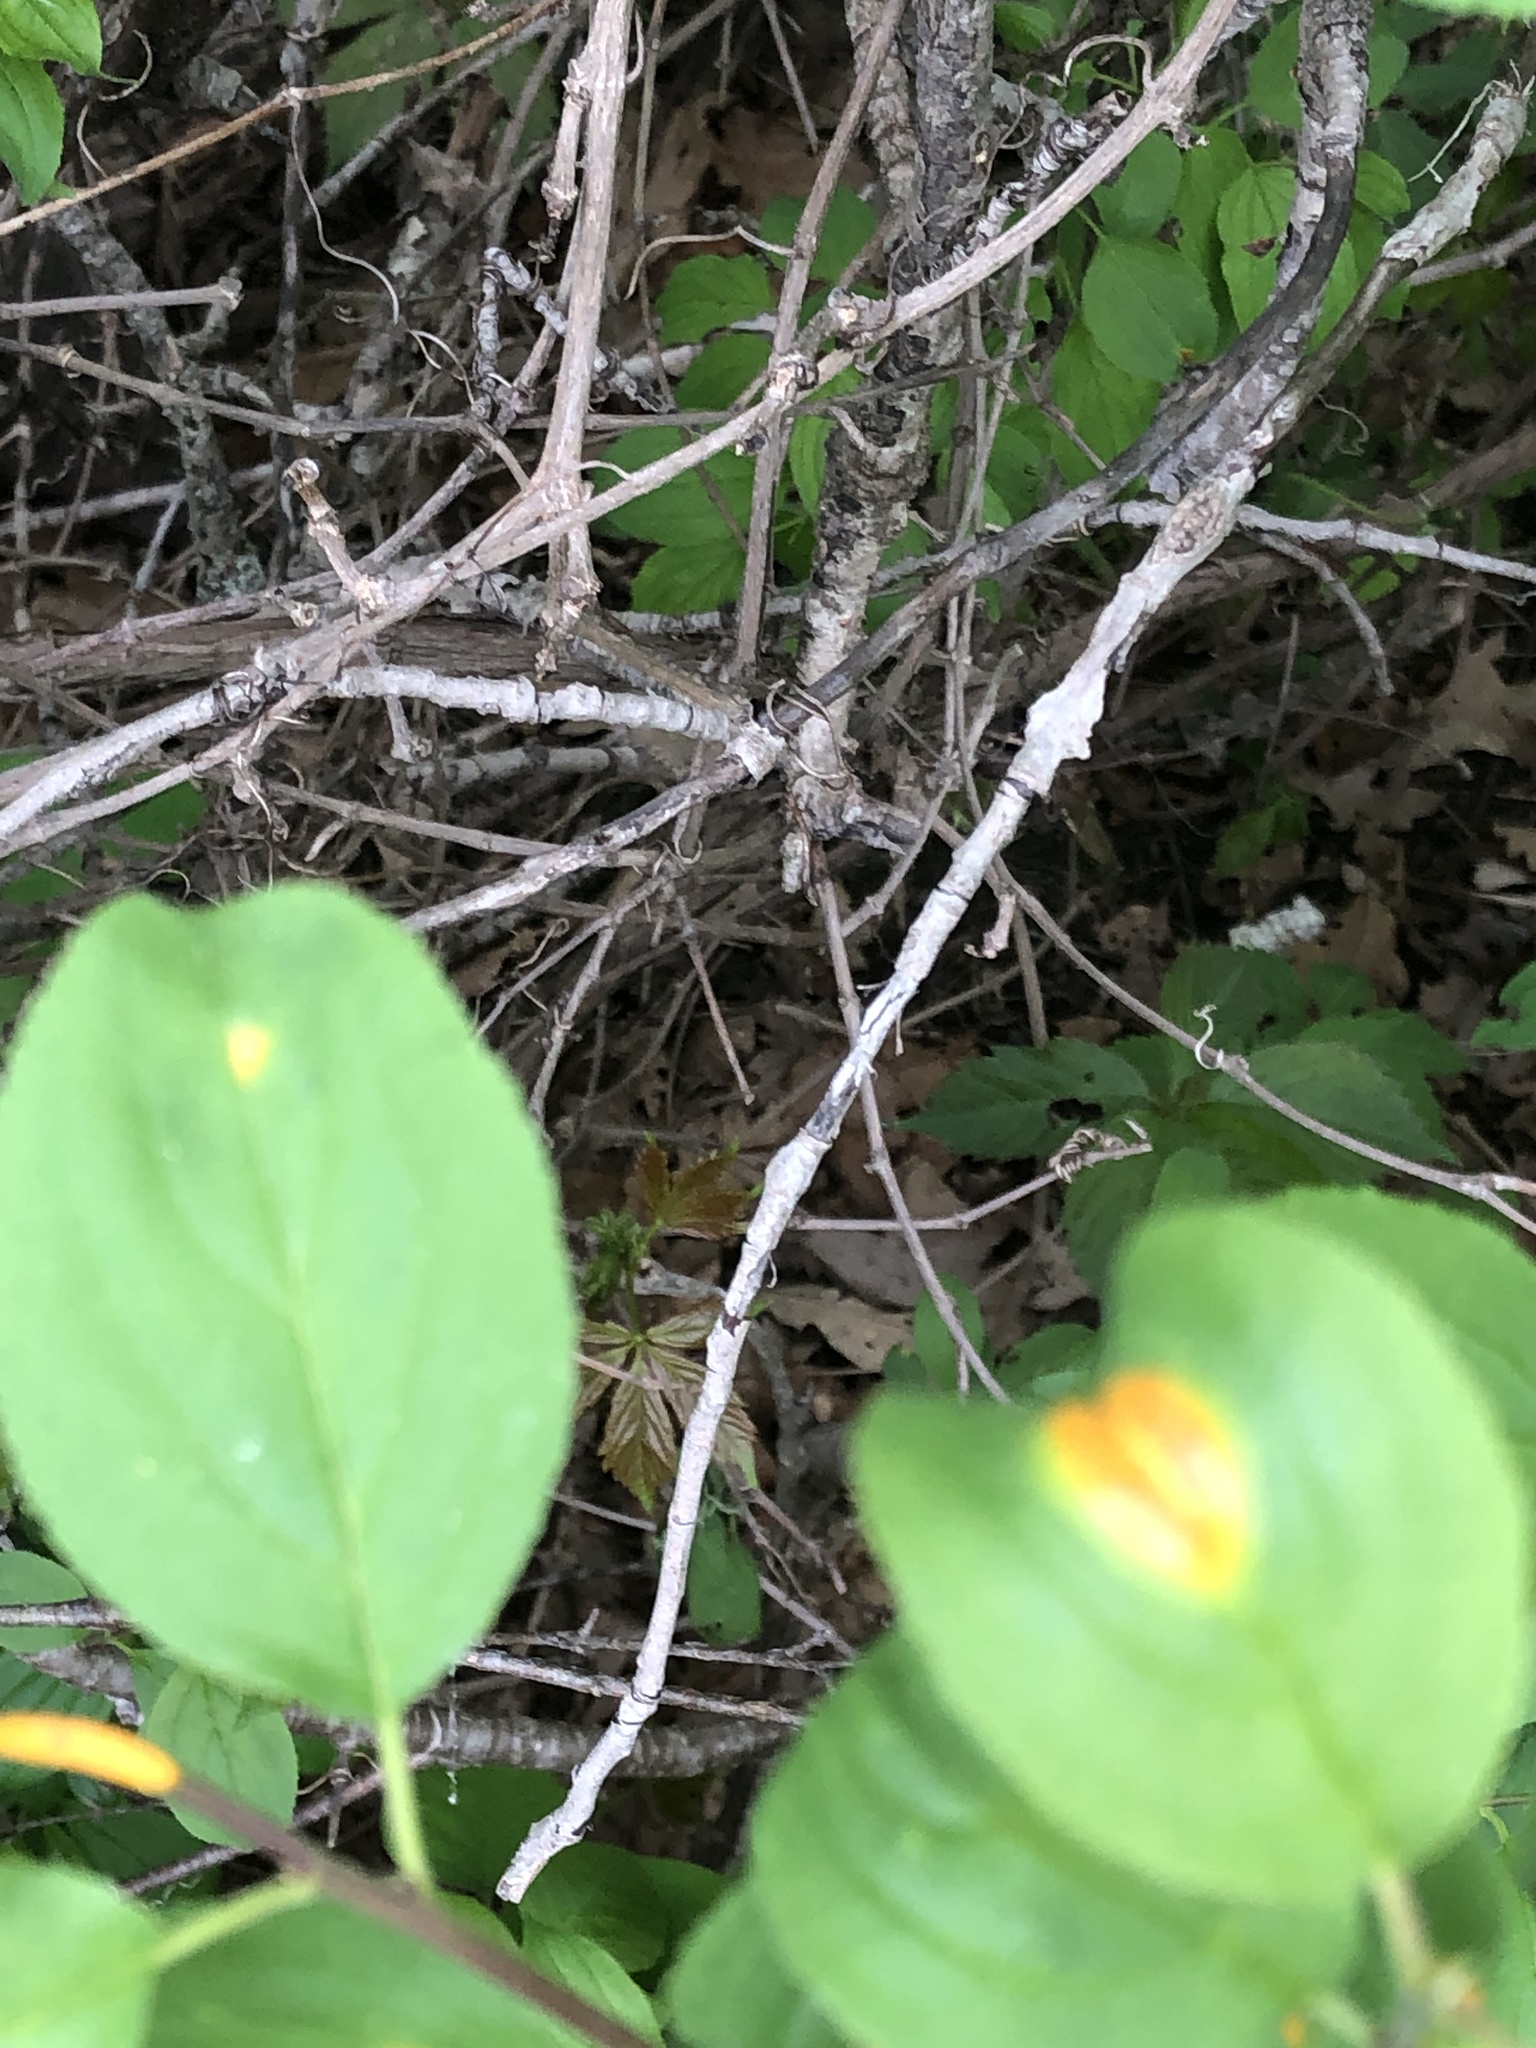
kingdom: Fungi
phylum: Basidiomycota
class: Pucciniomycetes
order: Pucciniales
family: Pucciniaceae
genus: Puccinia
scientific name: Puccinia coronata
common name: Crown rust
